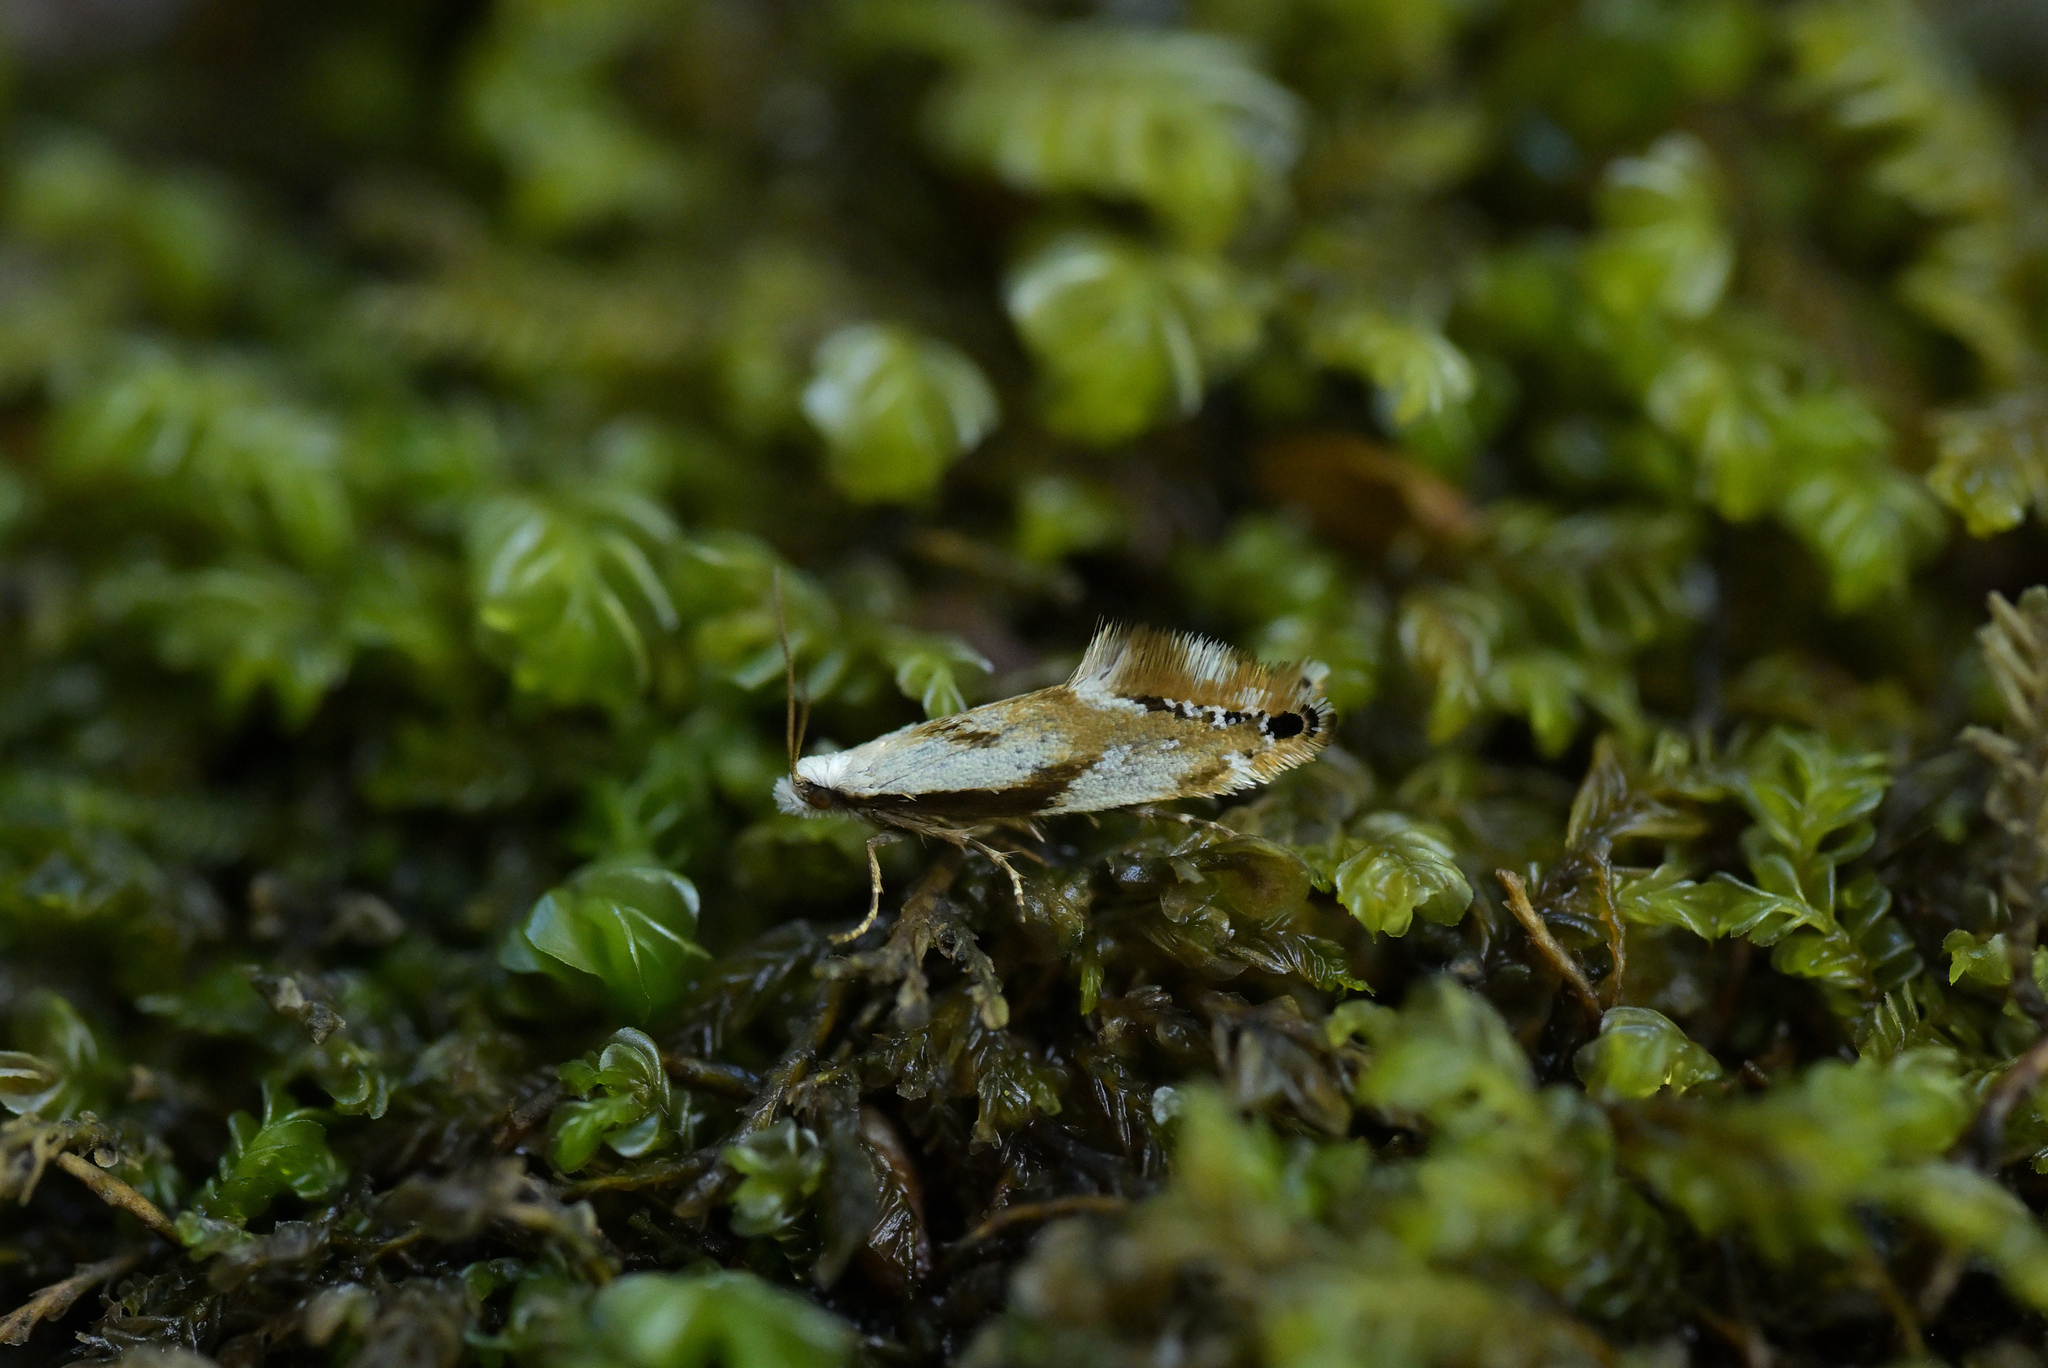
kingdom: Animalia
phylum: Arthropoda
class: Insecta
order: Lepidoptera
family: Mnesarchaeidae
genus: Mnesarchella
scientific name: Mnesarchella acuta
